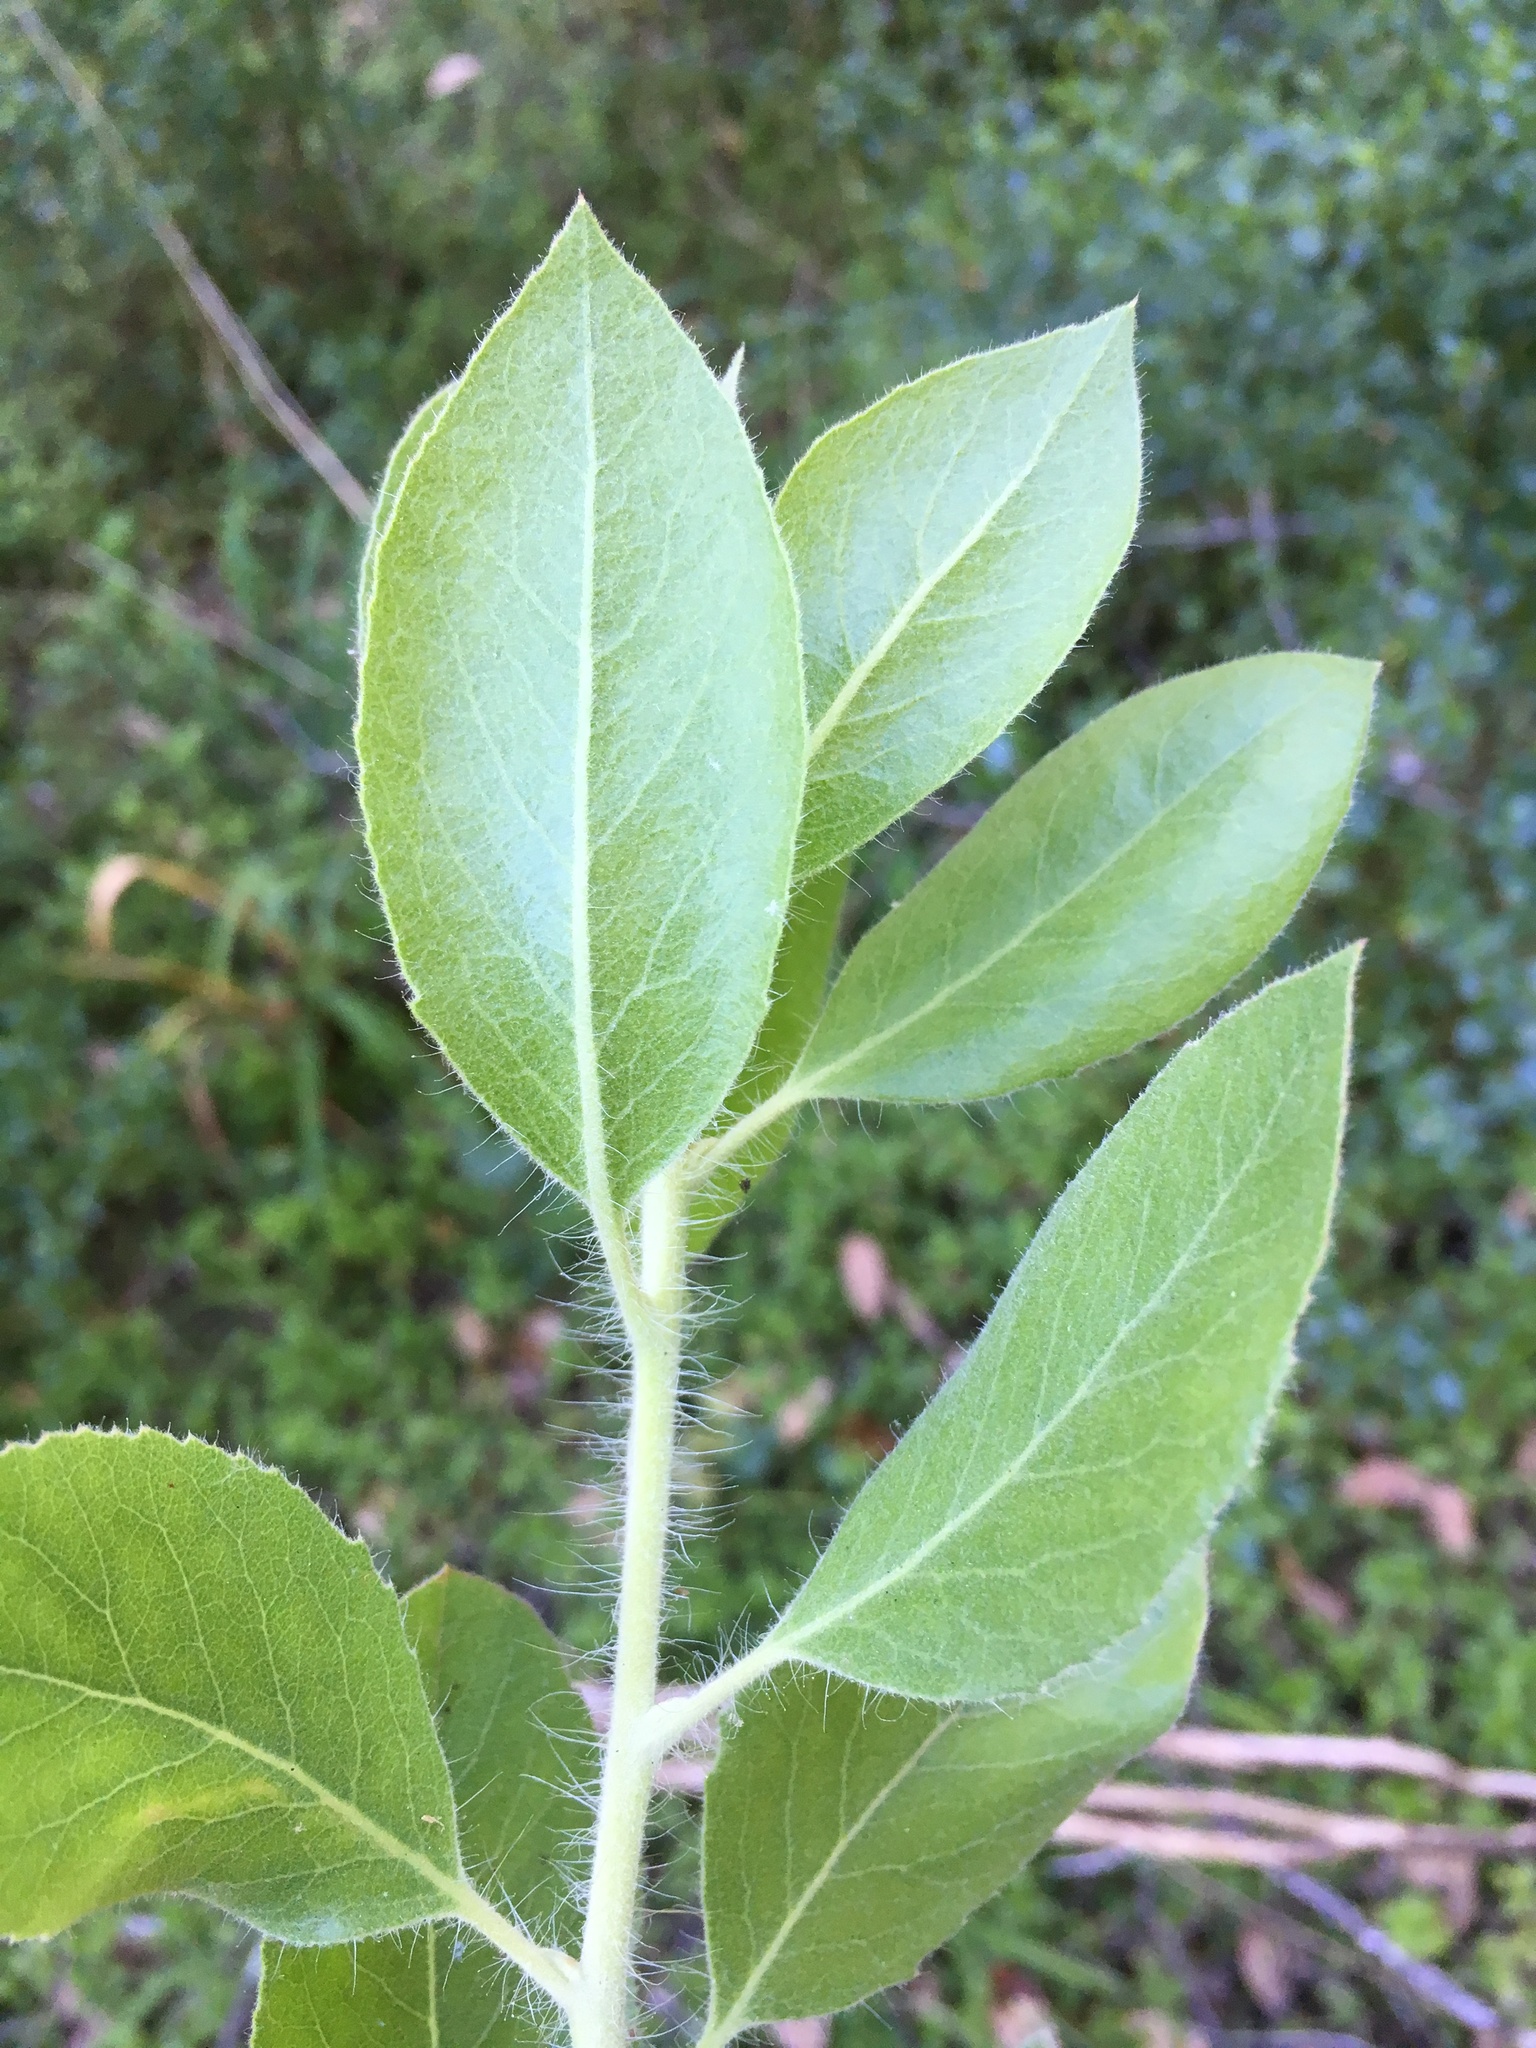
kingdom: Plantae
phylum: Tracheophyta
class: Magnoliopsida
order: Ericales
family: Ericaceae
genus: Arctostaphylos
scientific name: Arctostaphylos columbiana
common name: Bristly bearberry
